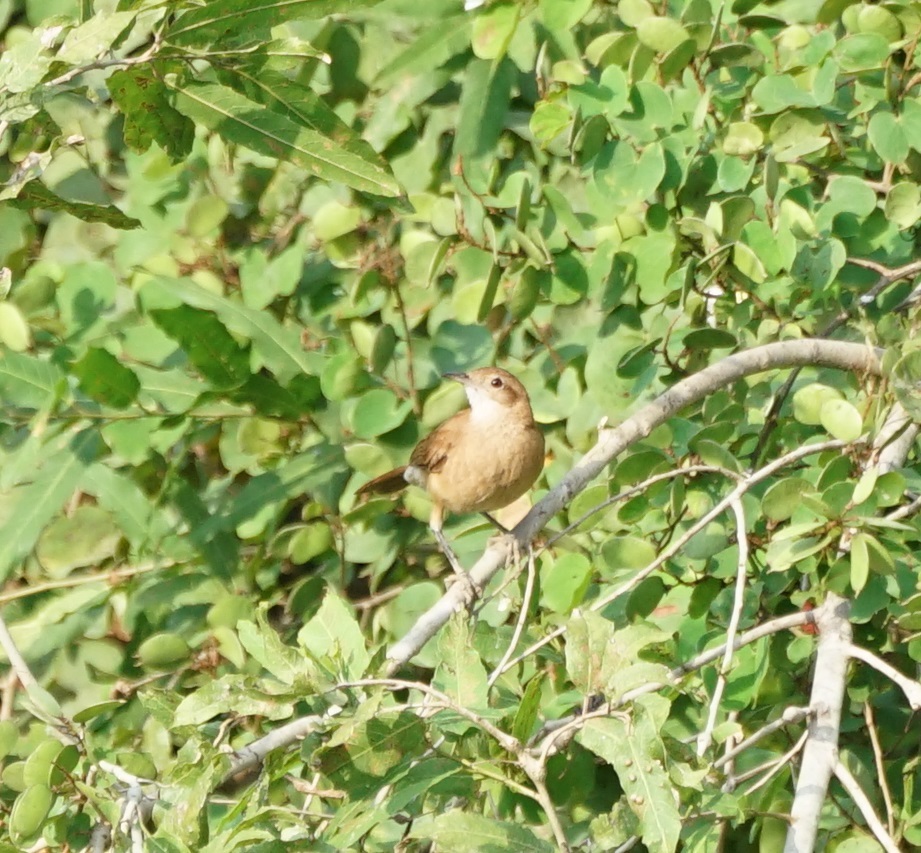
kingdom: Animalia
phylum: Chordata
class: Aves
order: Passeriformes
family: Furnariidae
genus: Furnarius
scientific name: Furnarius rufus
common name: Rufous hornero
